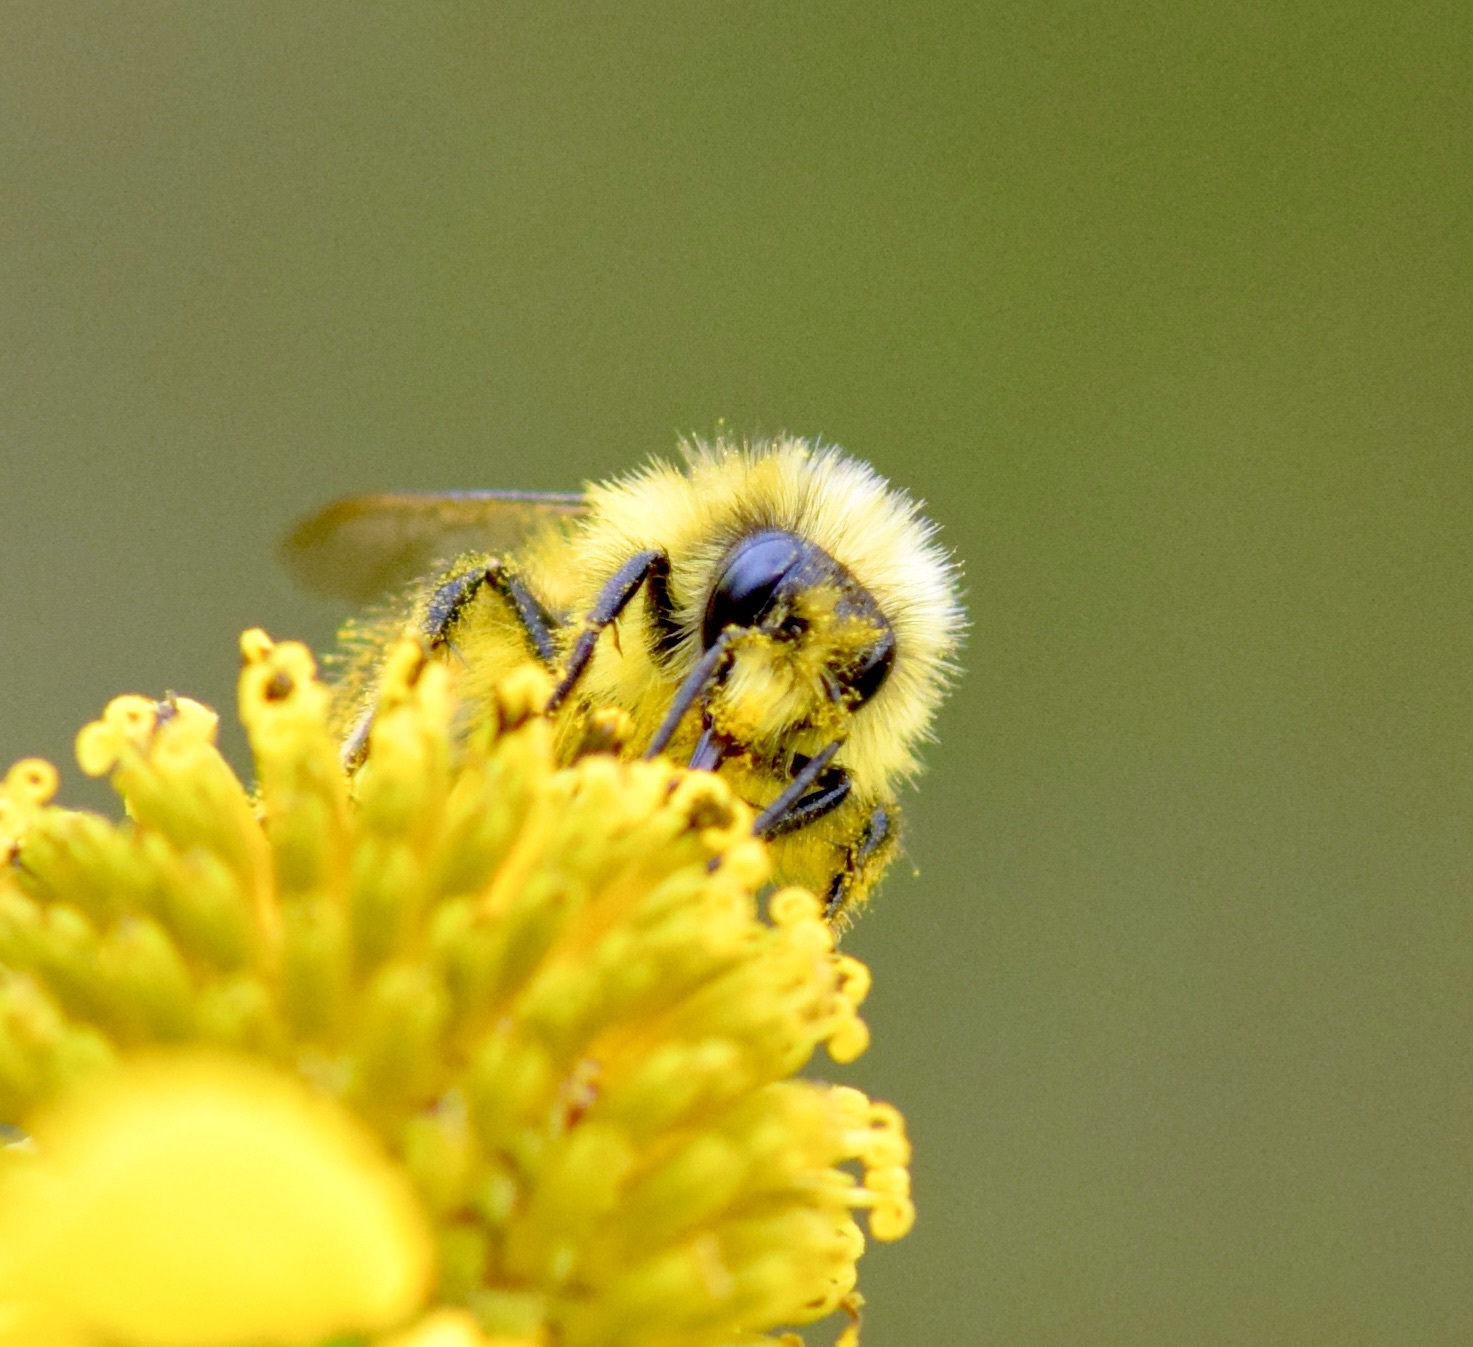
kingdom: Animalia
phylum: Arthropoda
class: Insecta
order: Hymenoptera
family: Apidae
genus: Bombus
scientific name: Bombus ternarius
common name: Tri-colored bumble bee
